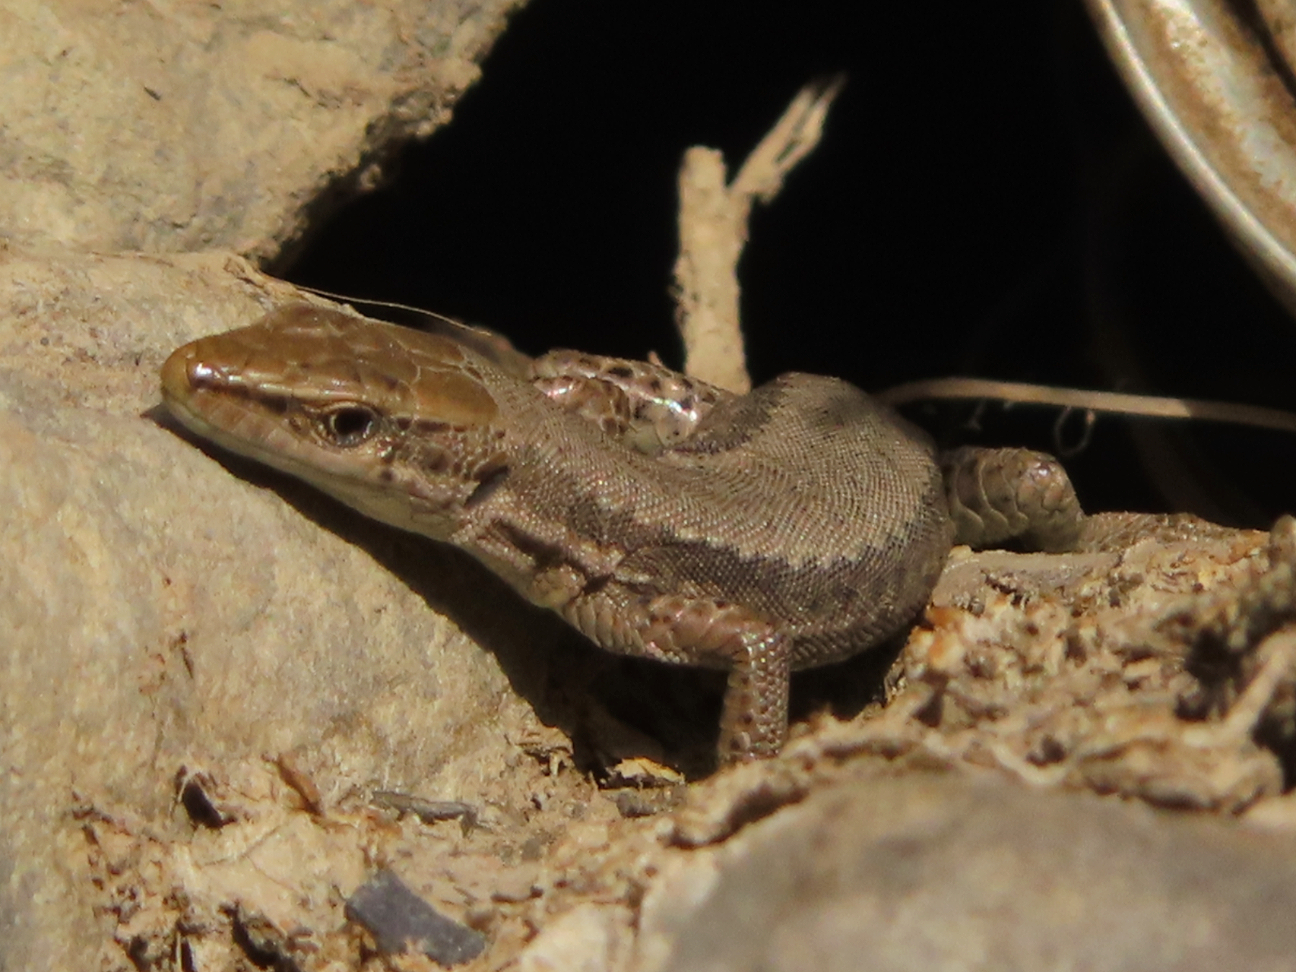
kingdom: Animalia
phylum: Chordata
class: Squamata
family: Lacertidae
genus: Darevskia
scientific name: Darevskia daghestanica
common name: Dagestan lizard
